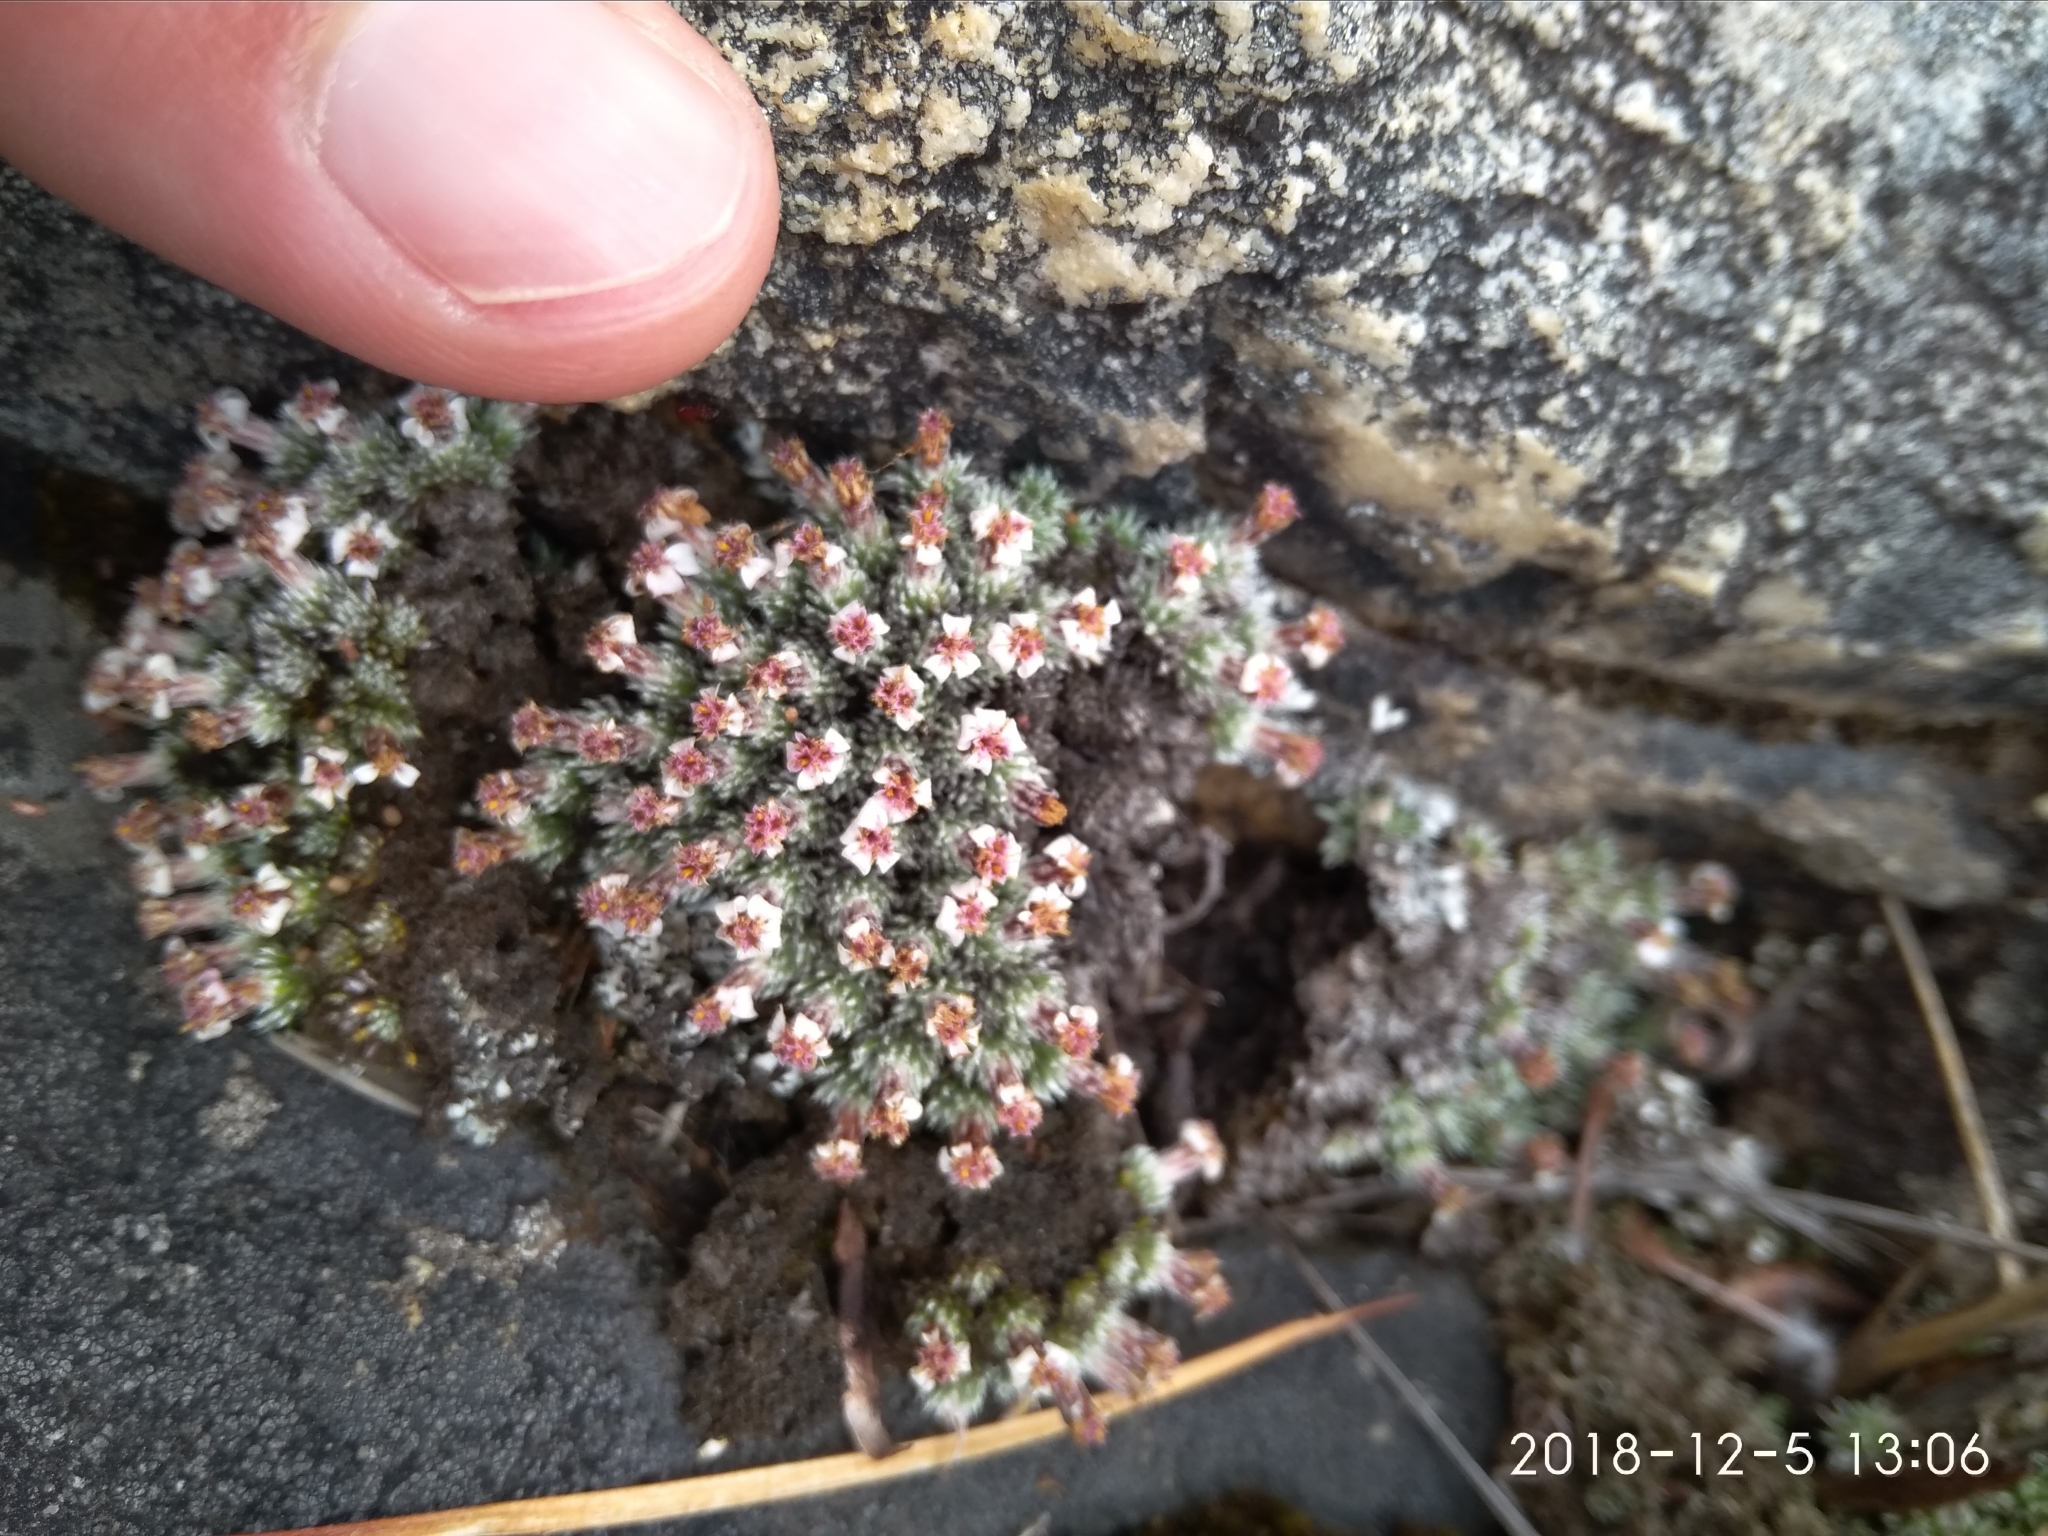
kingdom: Plantae
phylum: Tracheophyta
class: Magnoliopsida
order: Asterales
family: Asteraceae
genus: Muscosomorphe
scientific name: Muscosomorphe aretioides
